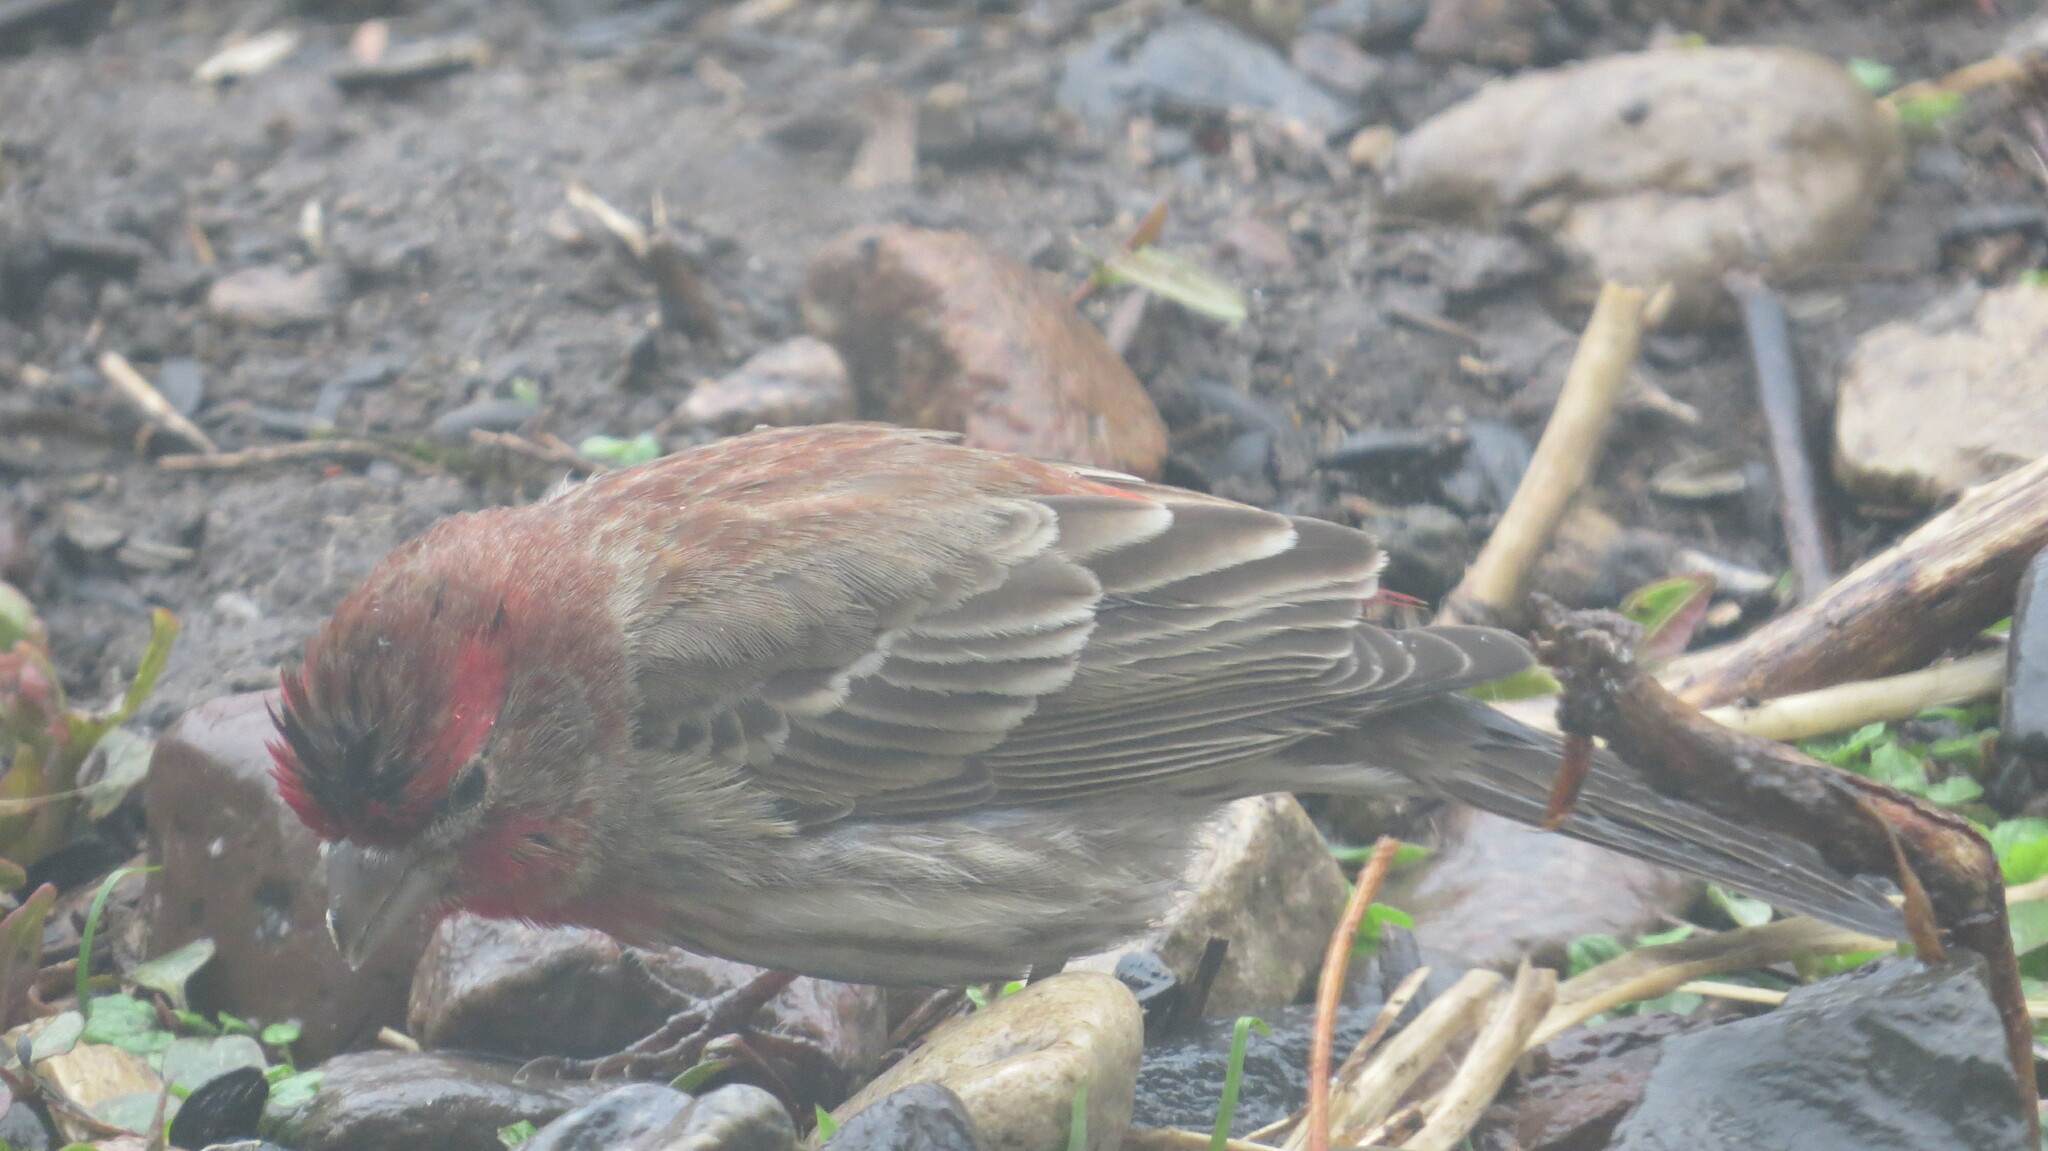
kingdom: Animalia
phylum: Chordata
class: Aves
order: Passeriformes
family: Fringillidae
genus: Haemorhous
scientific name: Haemorhous mexicanus
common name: House finch
